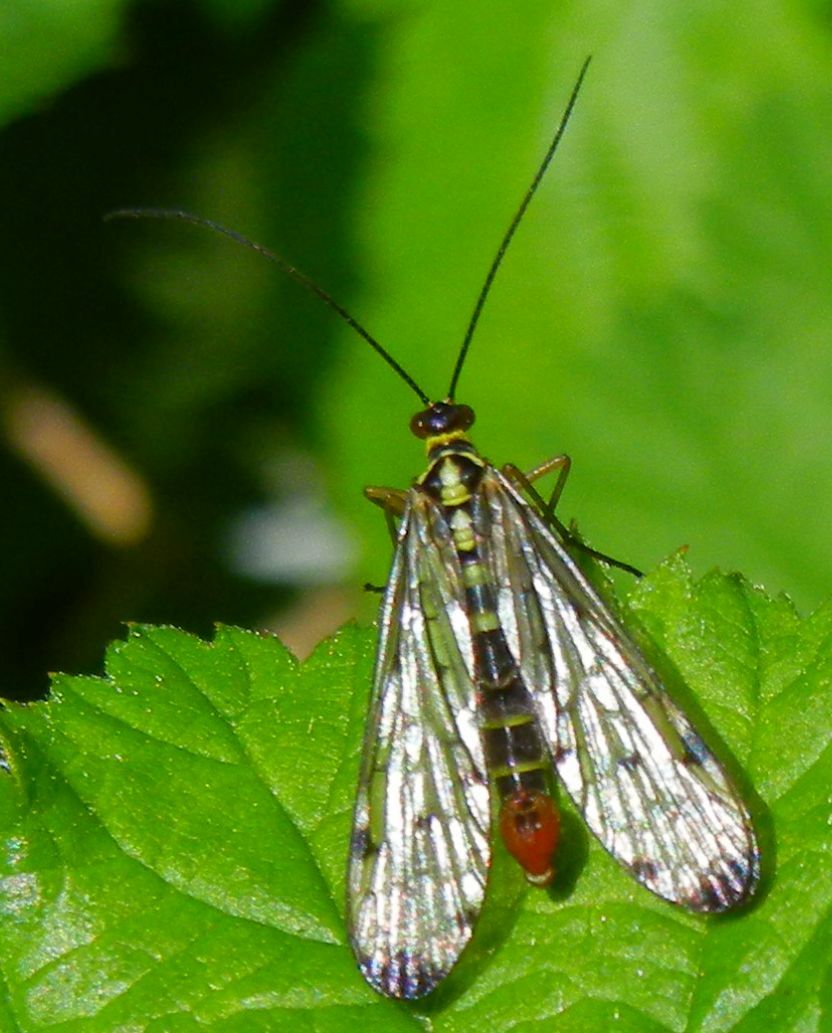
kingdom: Animalia
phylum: Arthropoda
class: Insecta
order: Mecoptera
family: Panorpidae
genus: Panorpa
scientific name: Panorpa germanica
